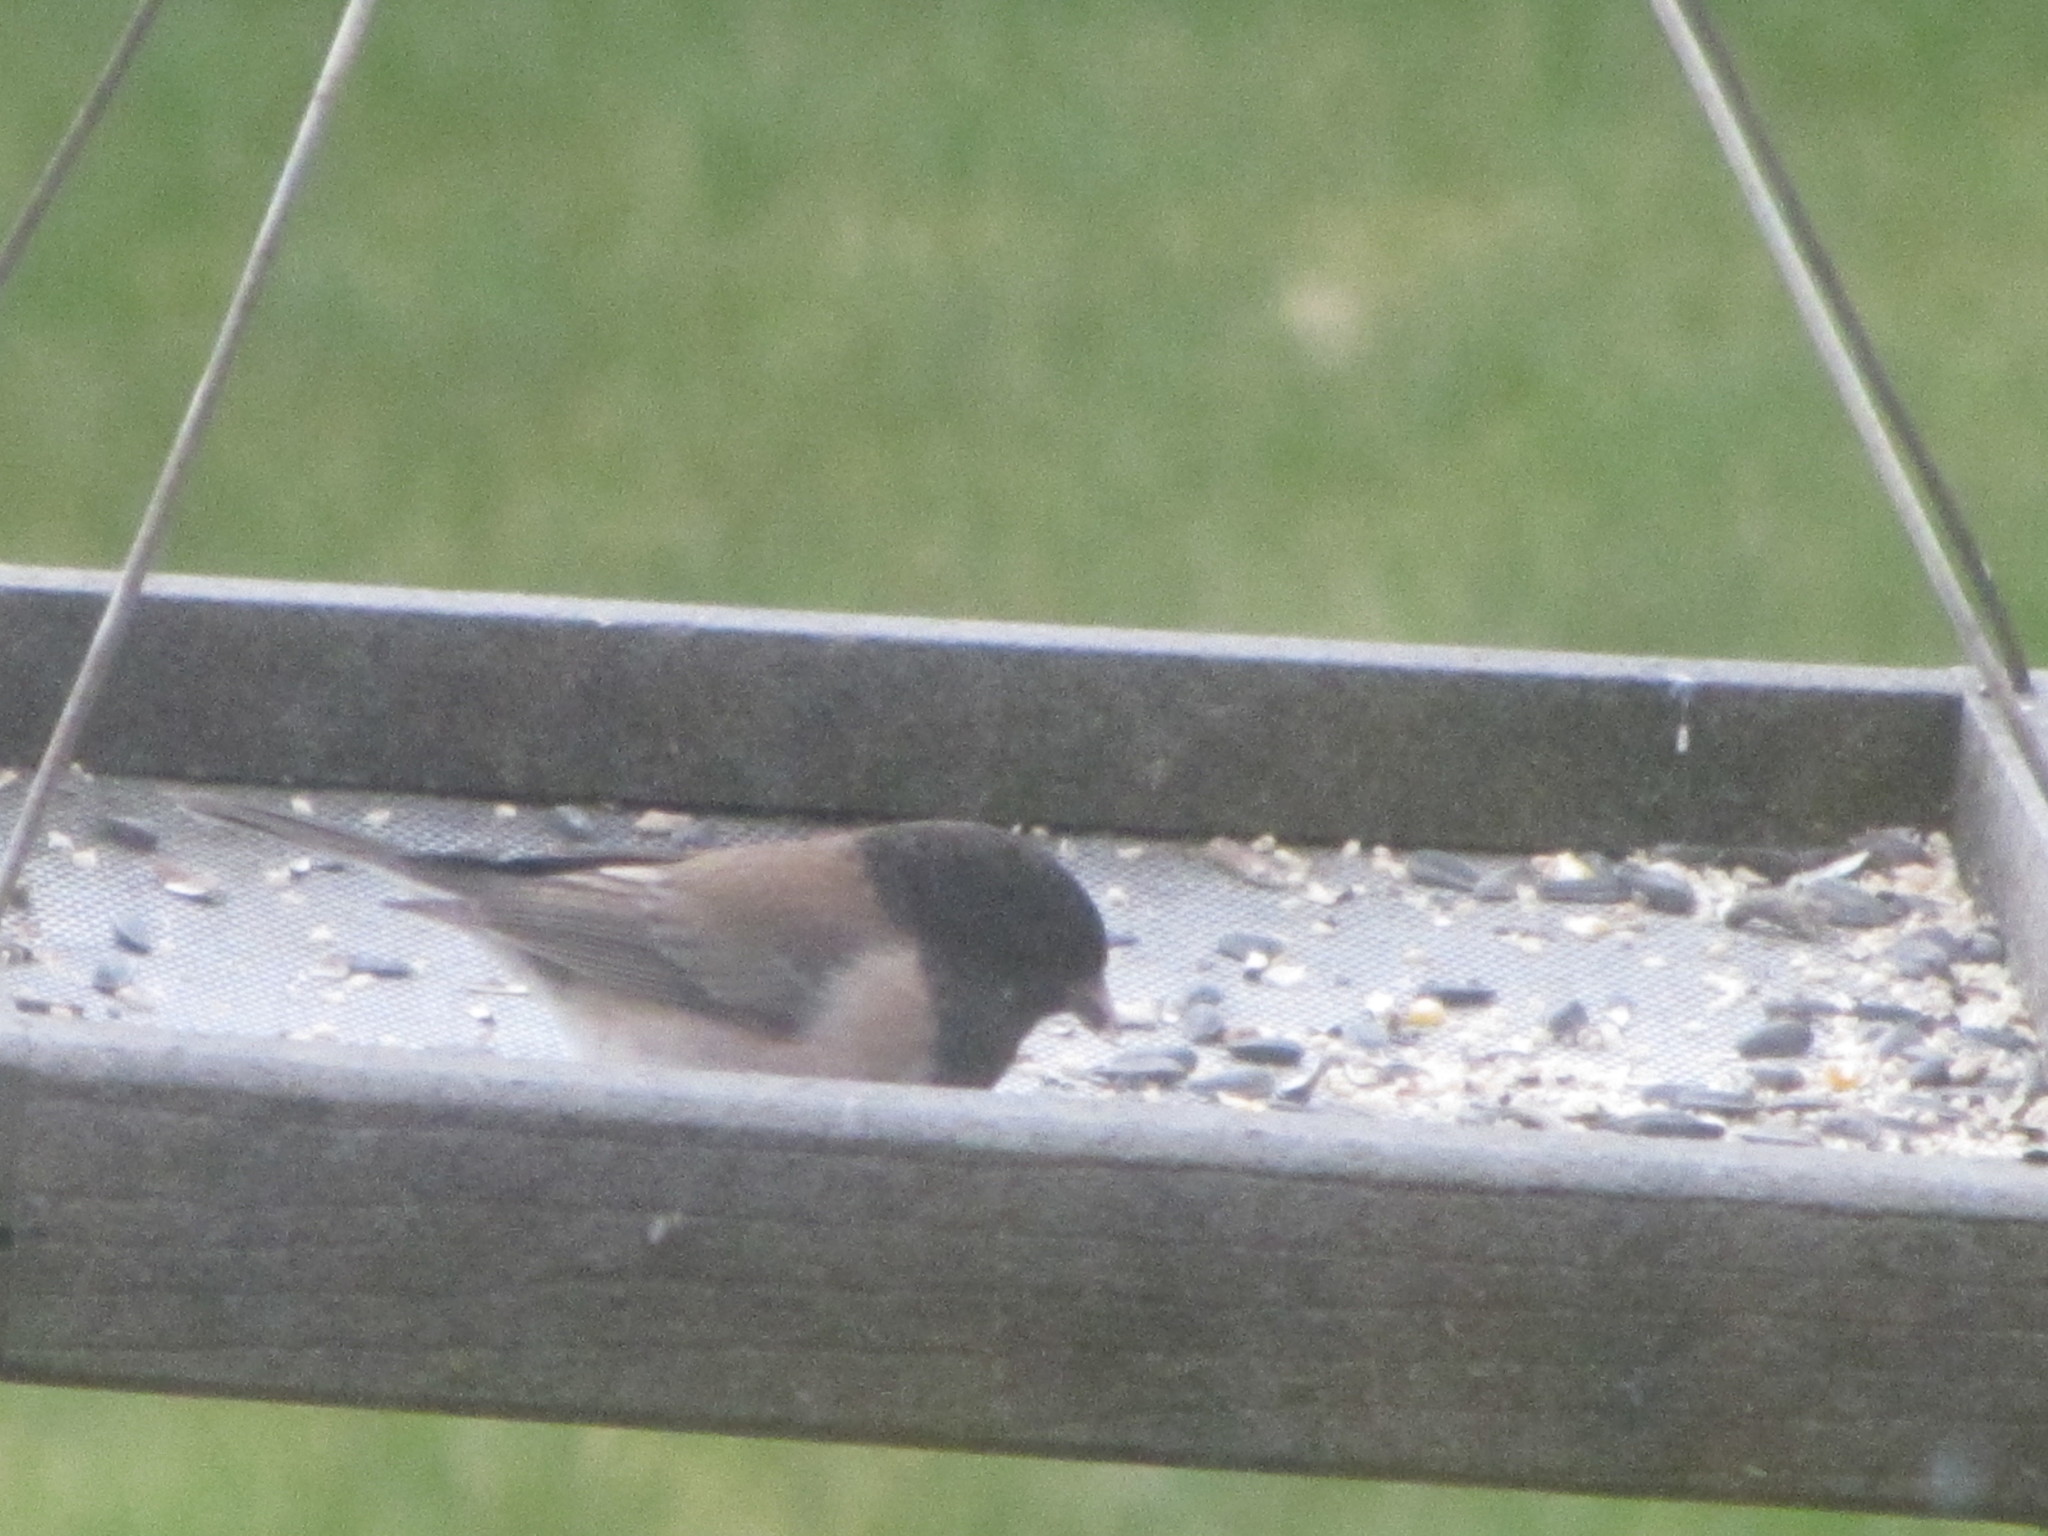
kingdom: Animalia
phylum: Chordata
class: Aves
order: Passeriformes
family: Passerellidae
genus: Junco
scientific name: Junco hyemalis
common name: Dark-eyed junco
